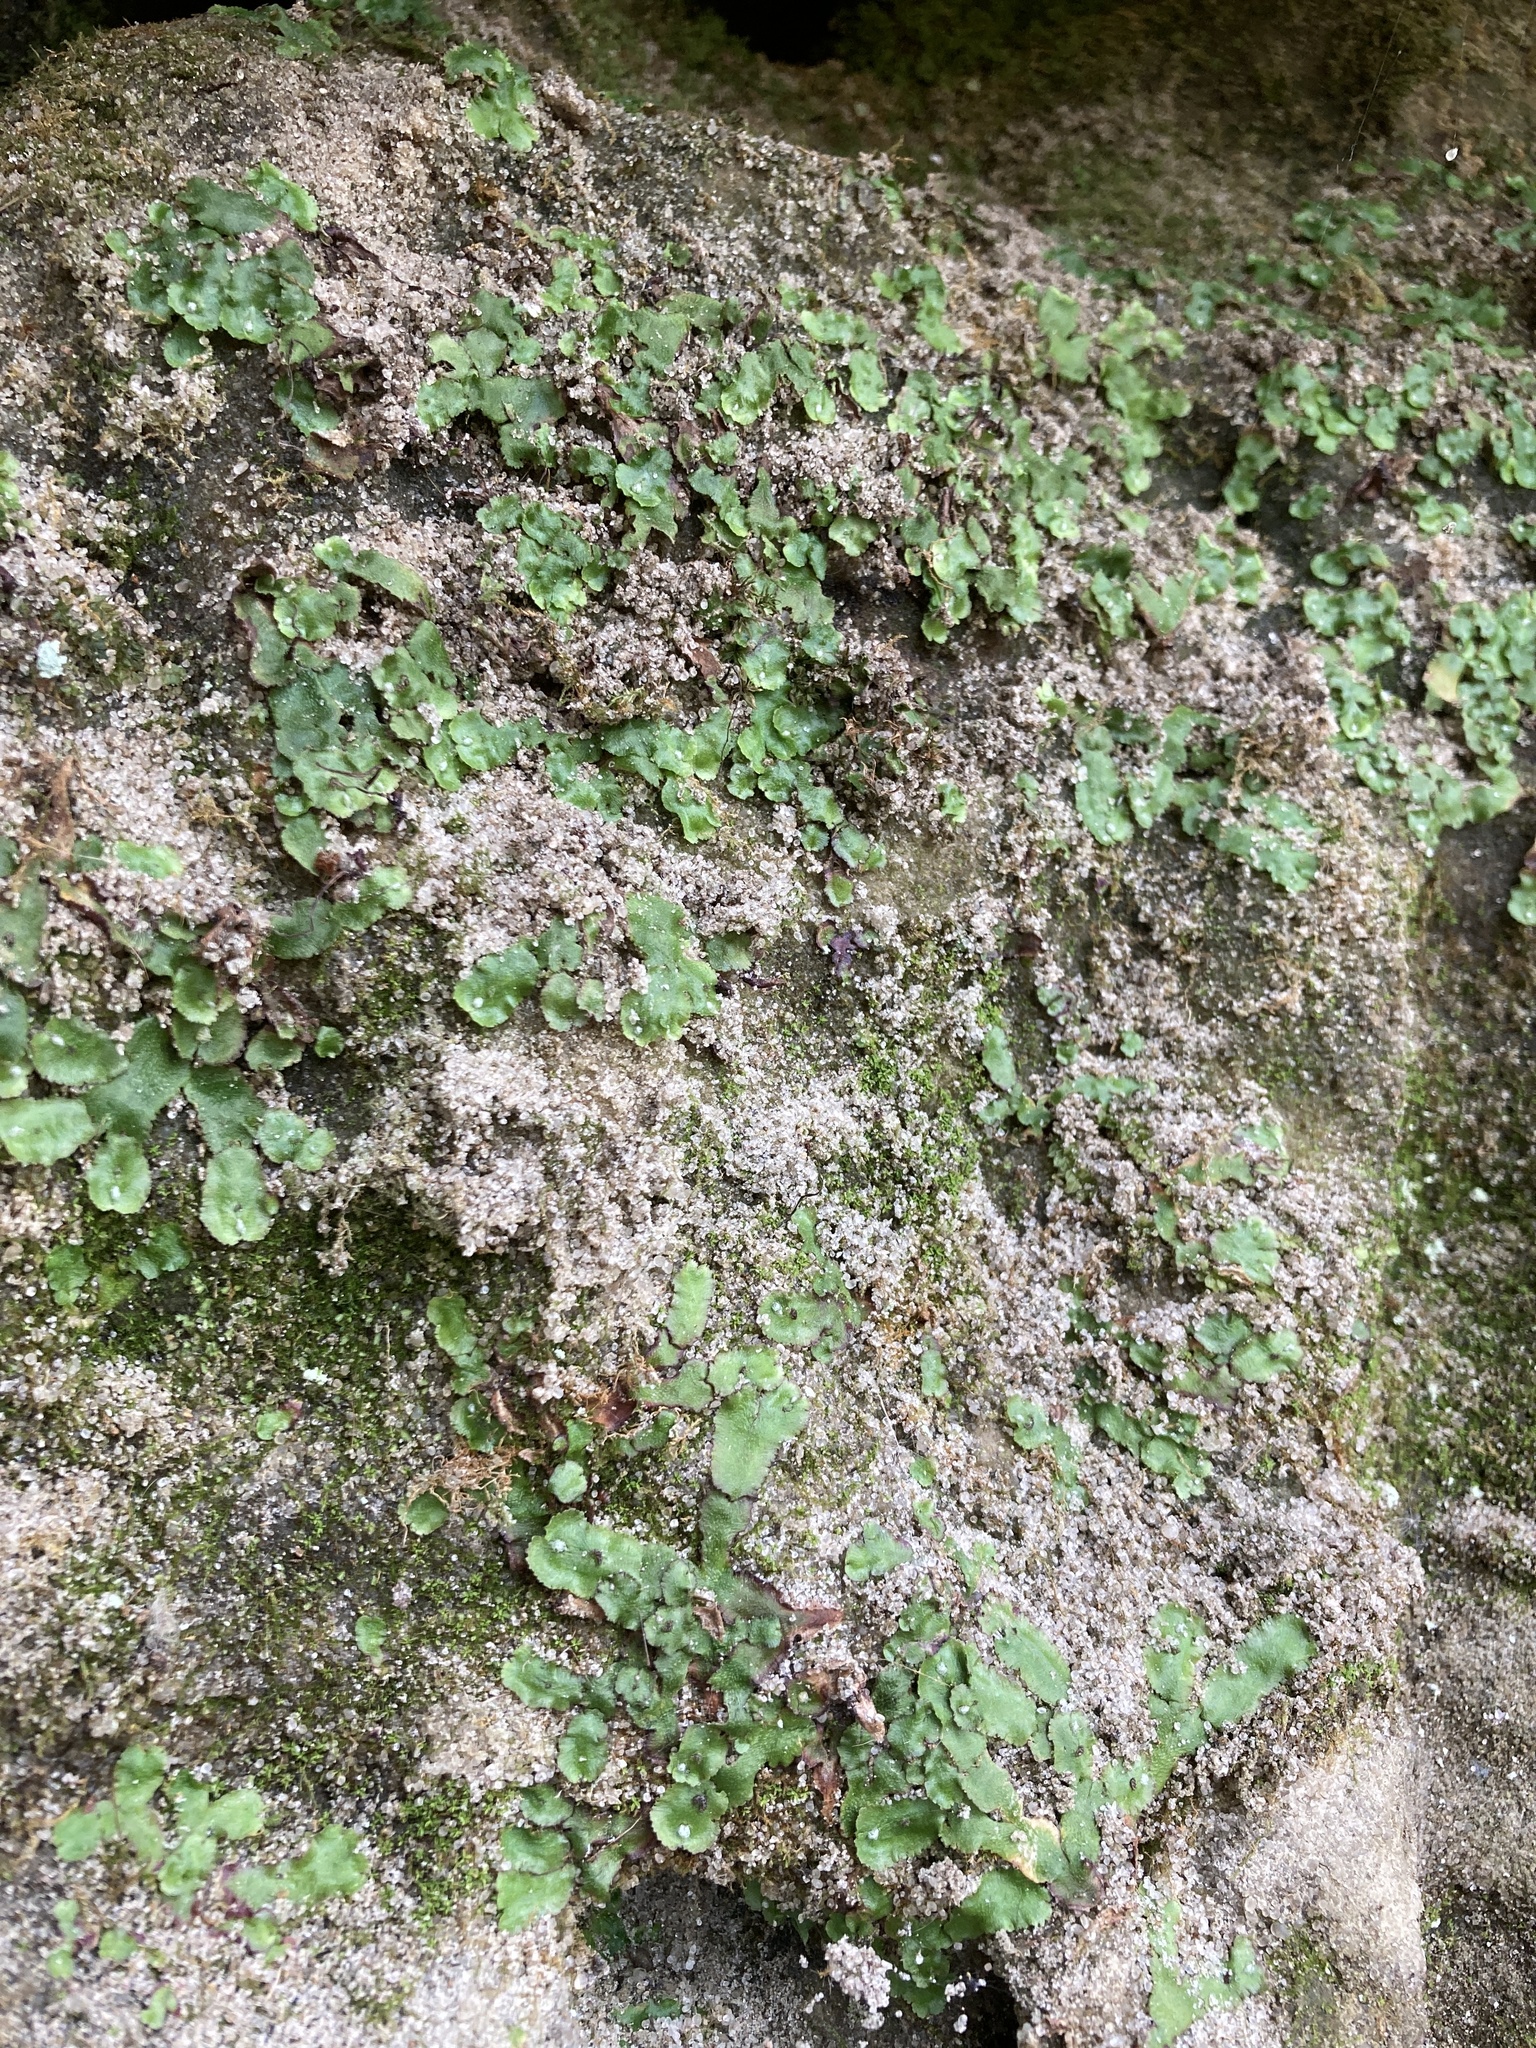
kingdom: Plantae
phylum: Marchantiophyta
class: Marchantiopsida
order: Marchantiales
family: Conocephalaceae
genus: Conocephalum
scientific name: Conocephalum salebrosum
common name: Cat-tongue liverwort
